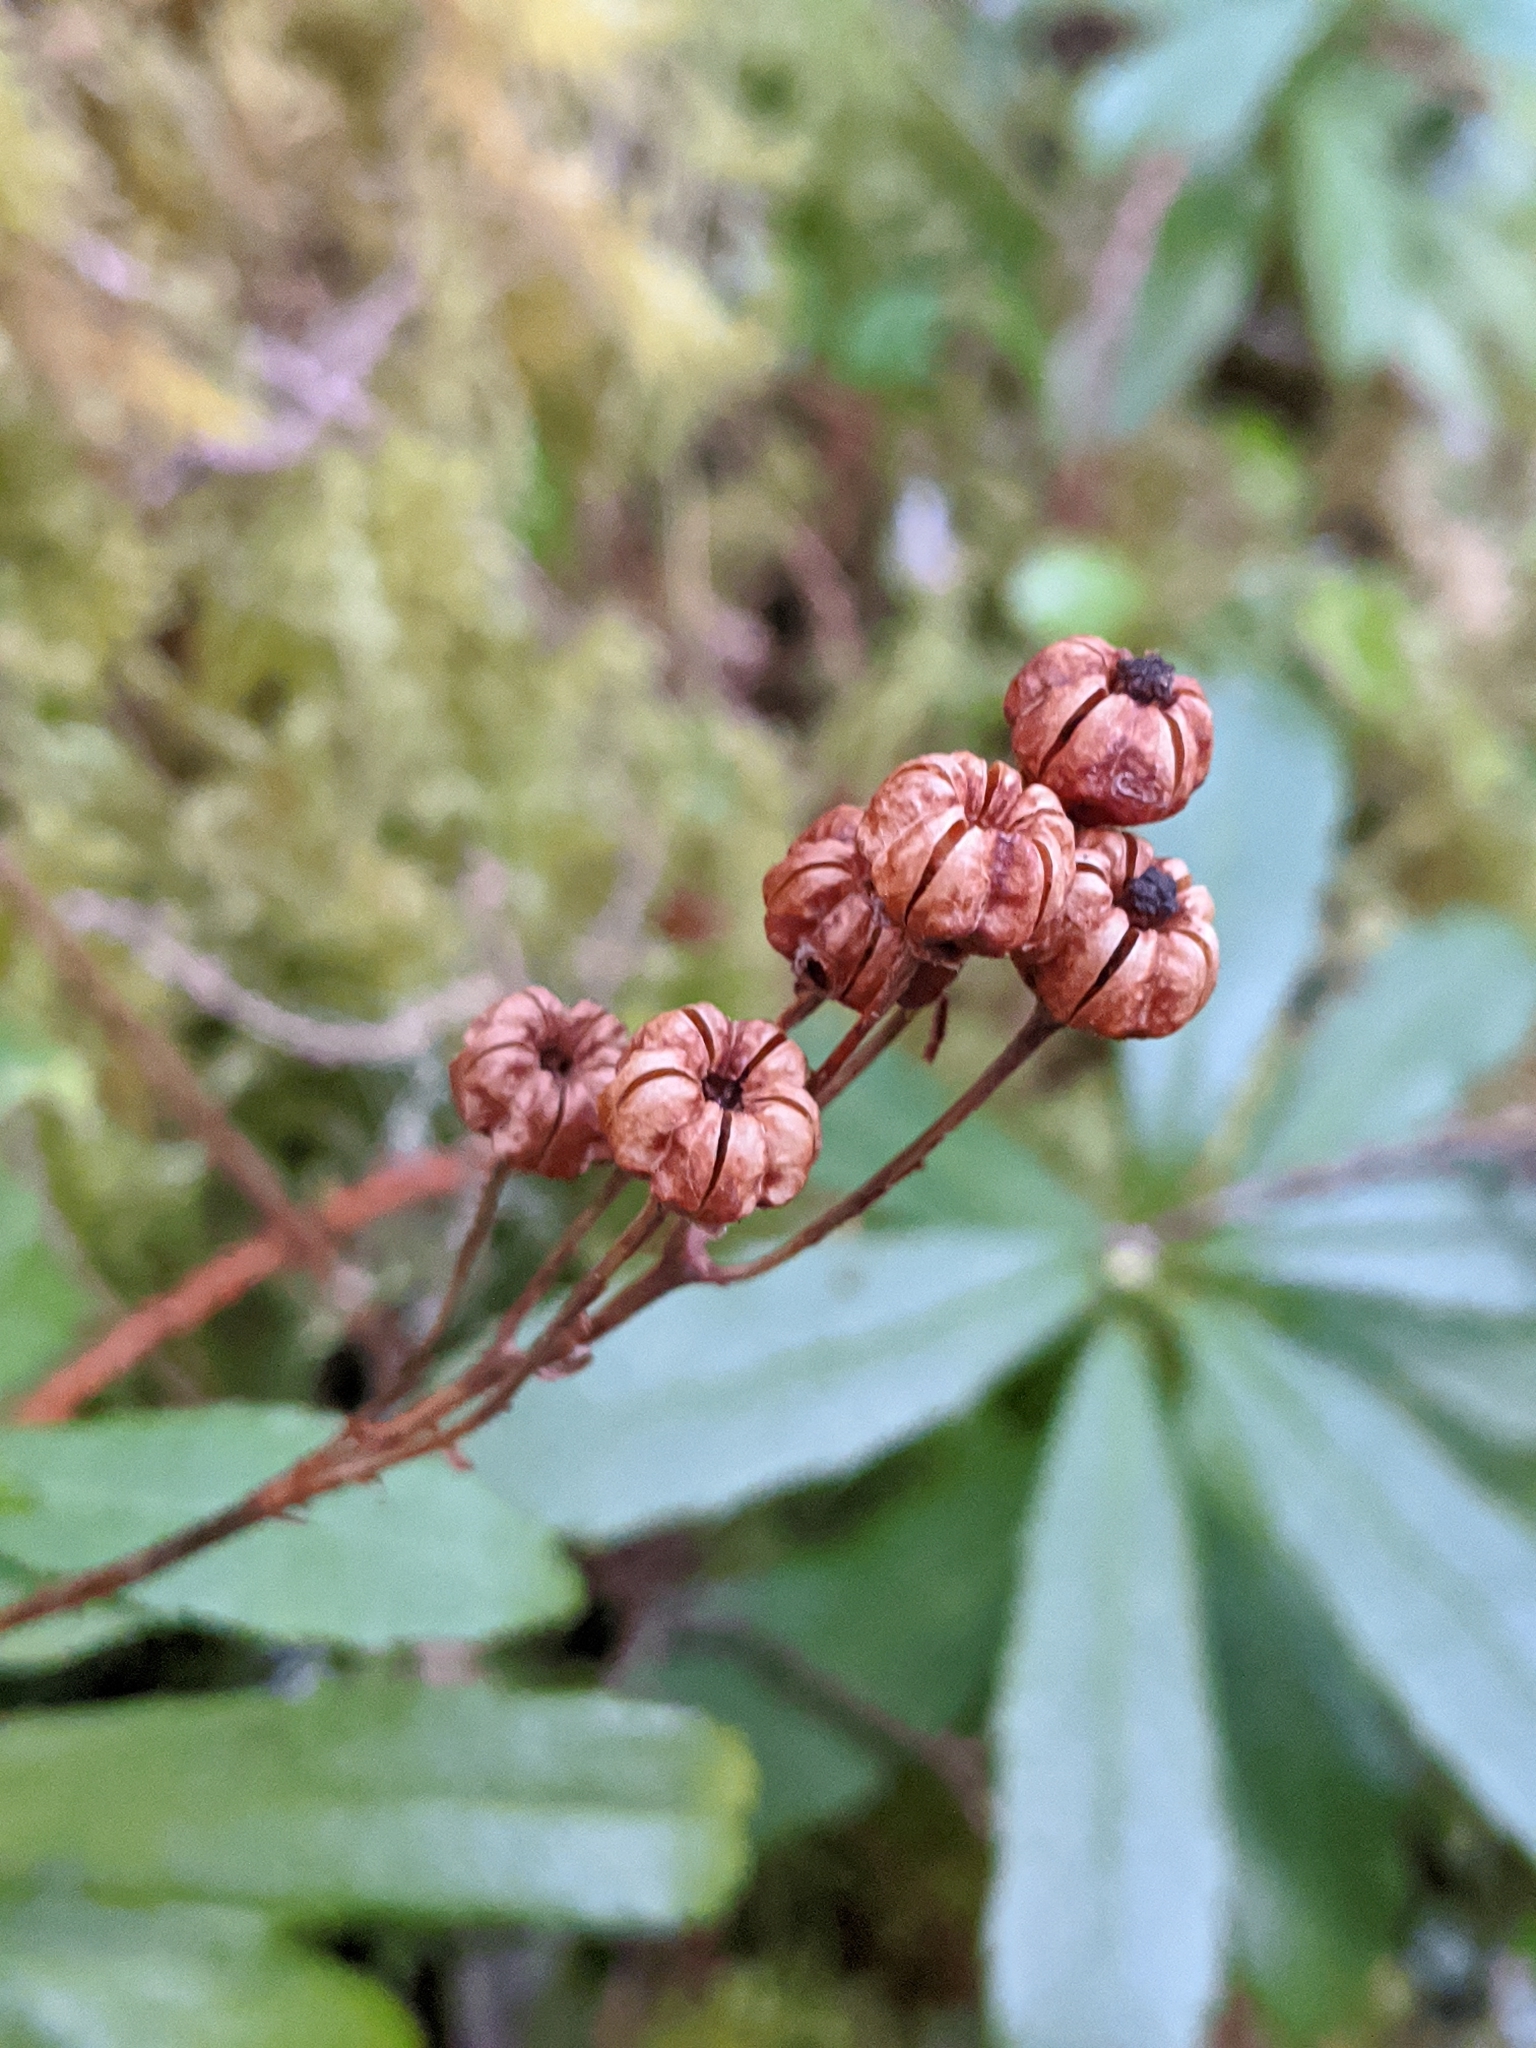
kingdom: Plantae
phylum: Tracheophyta
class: Magnoliopsida
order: Ericales
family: Ericaceae
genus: Chimaphila
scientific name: Chimaphila umbellata
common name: Pipsissewa
